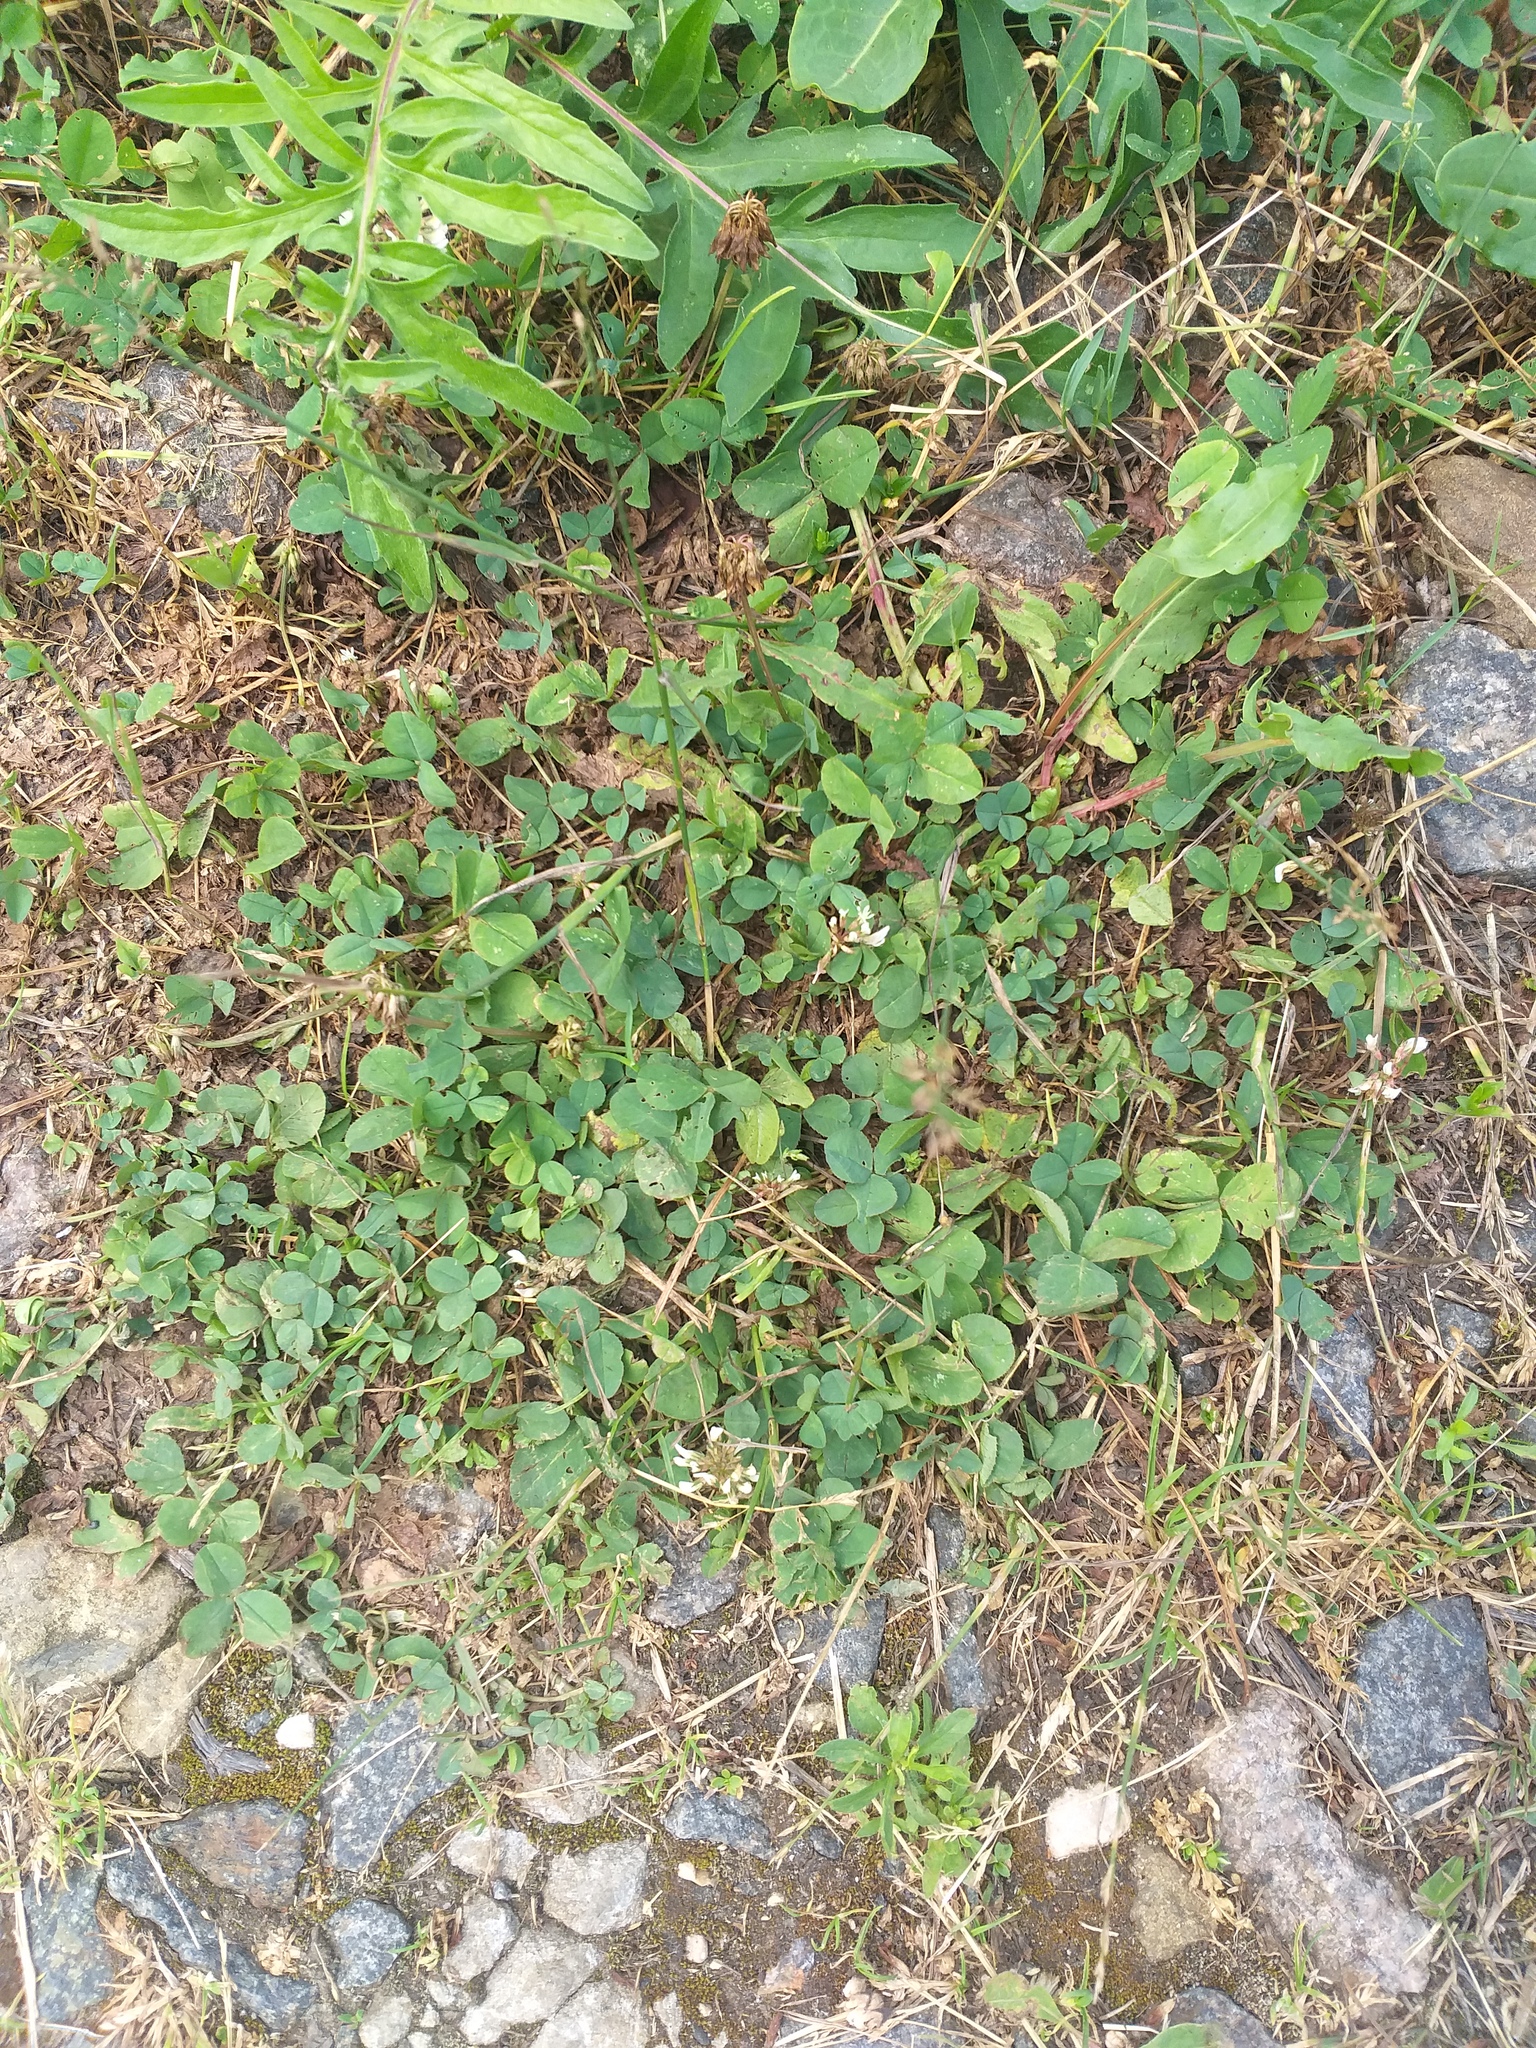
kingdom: Plantae
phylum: Tracheophyta
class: Magnoliopsida
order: Fabales
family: Fabaceae
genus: Trifolium
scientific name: Trifolium repens
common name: White clover
